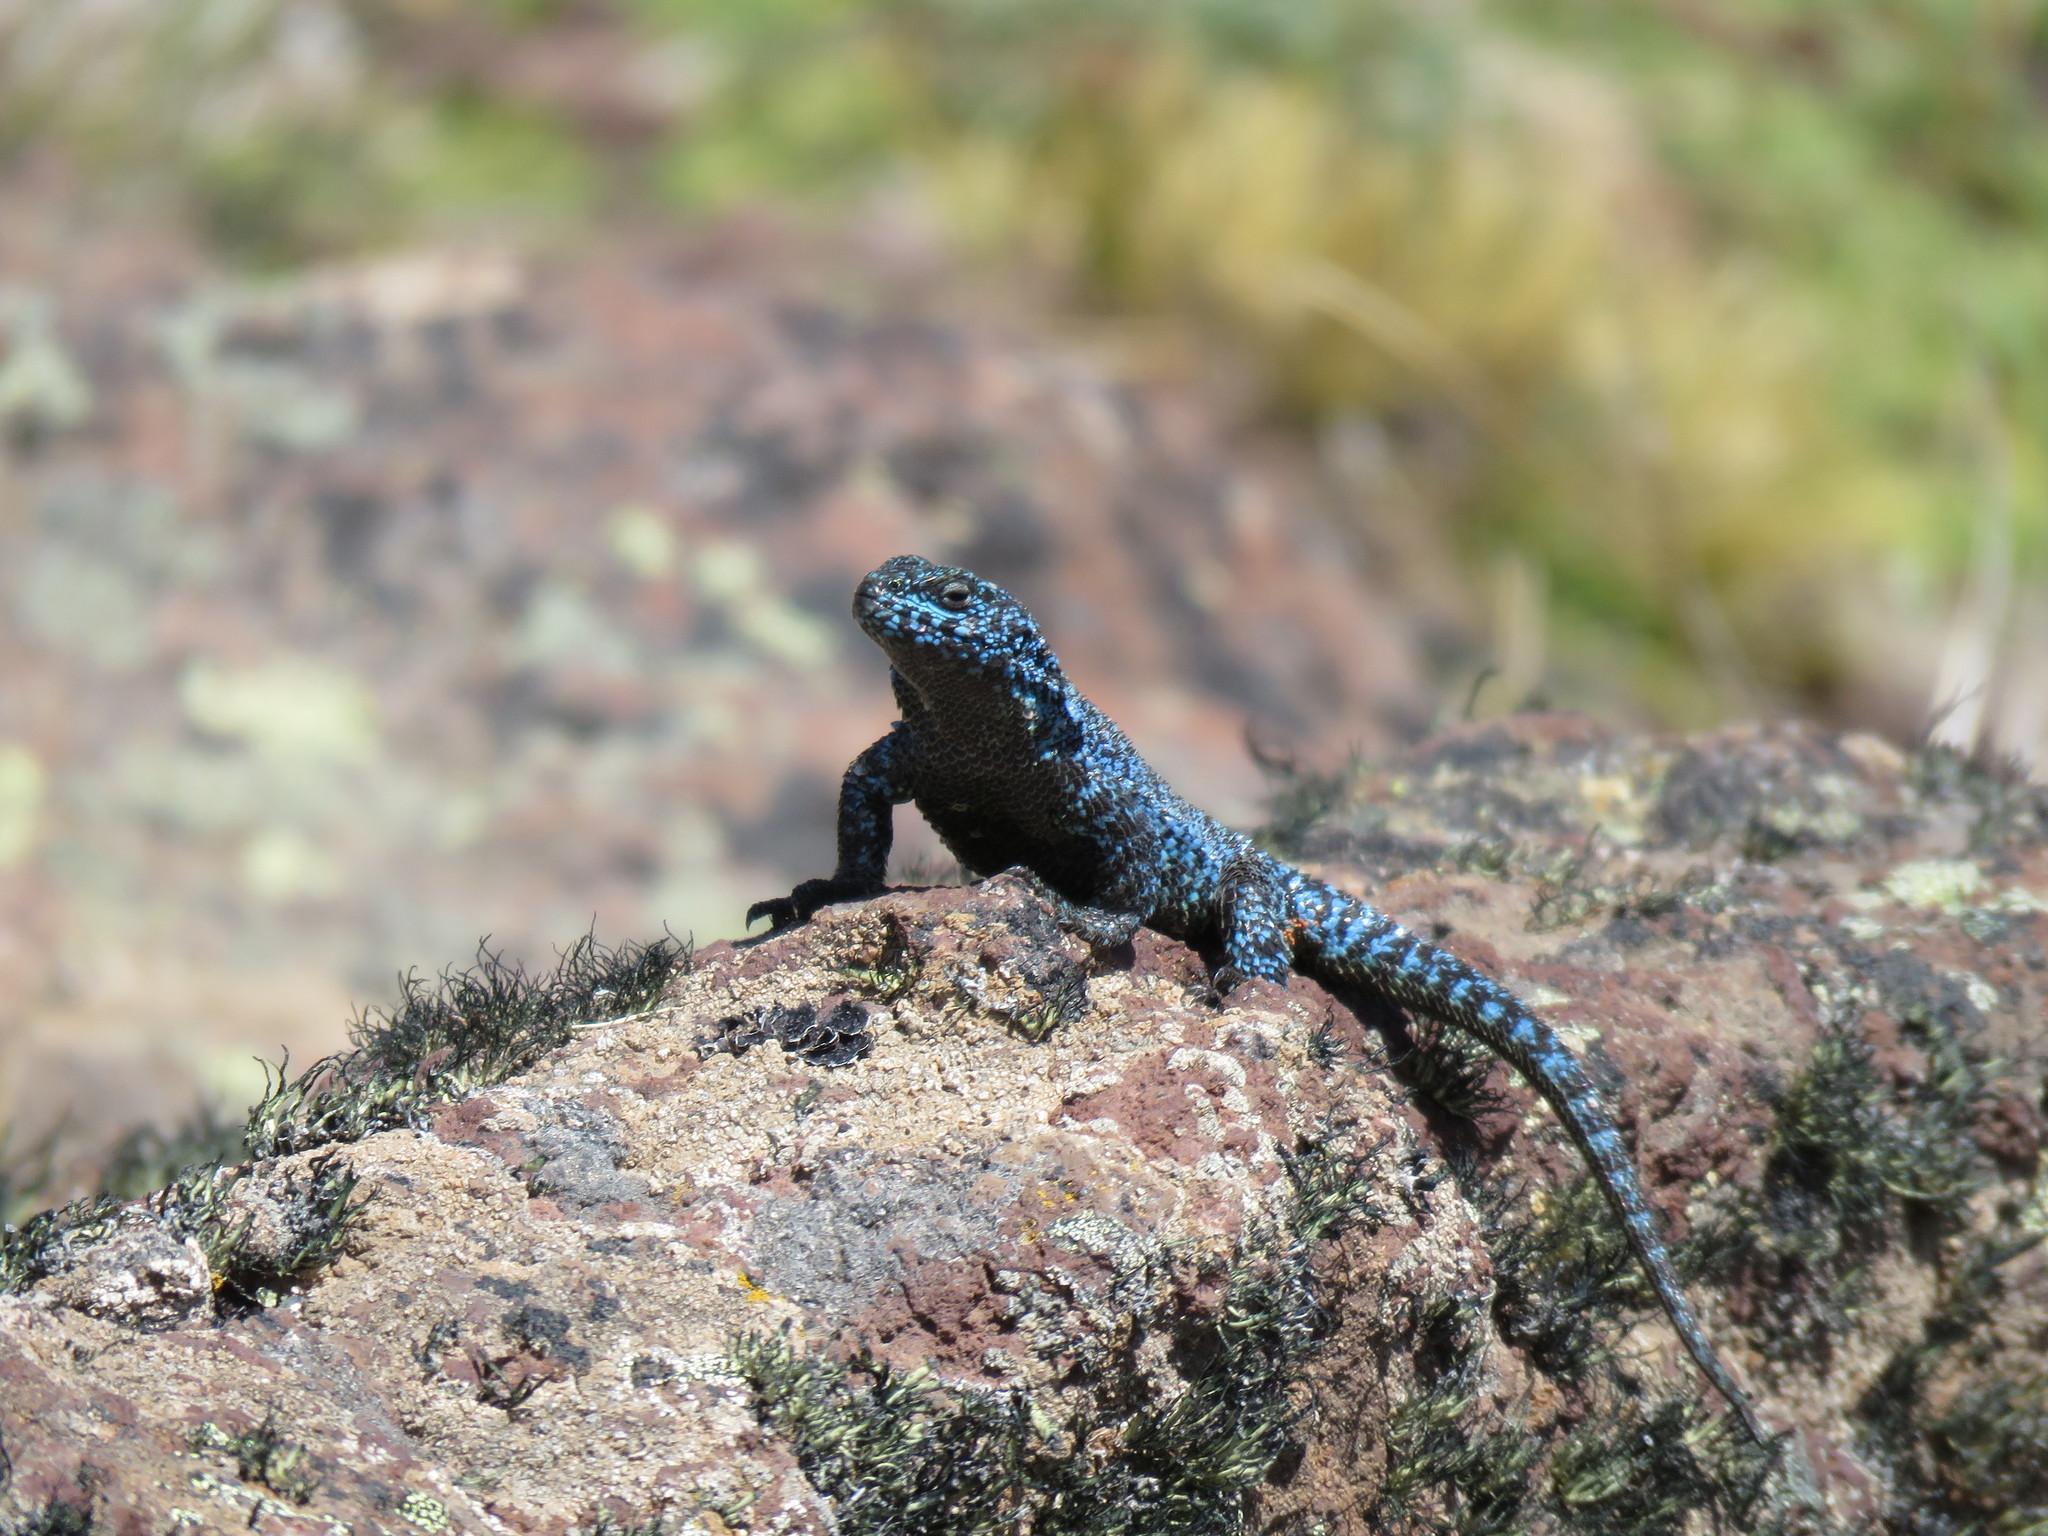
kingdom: Animalia
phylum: Chordata
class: Squamata
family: Liolaemidae
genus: Liolaemus
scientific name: Liolaemus silvanae
